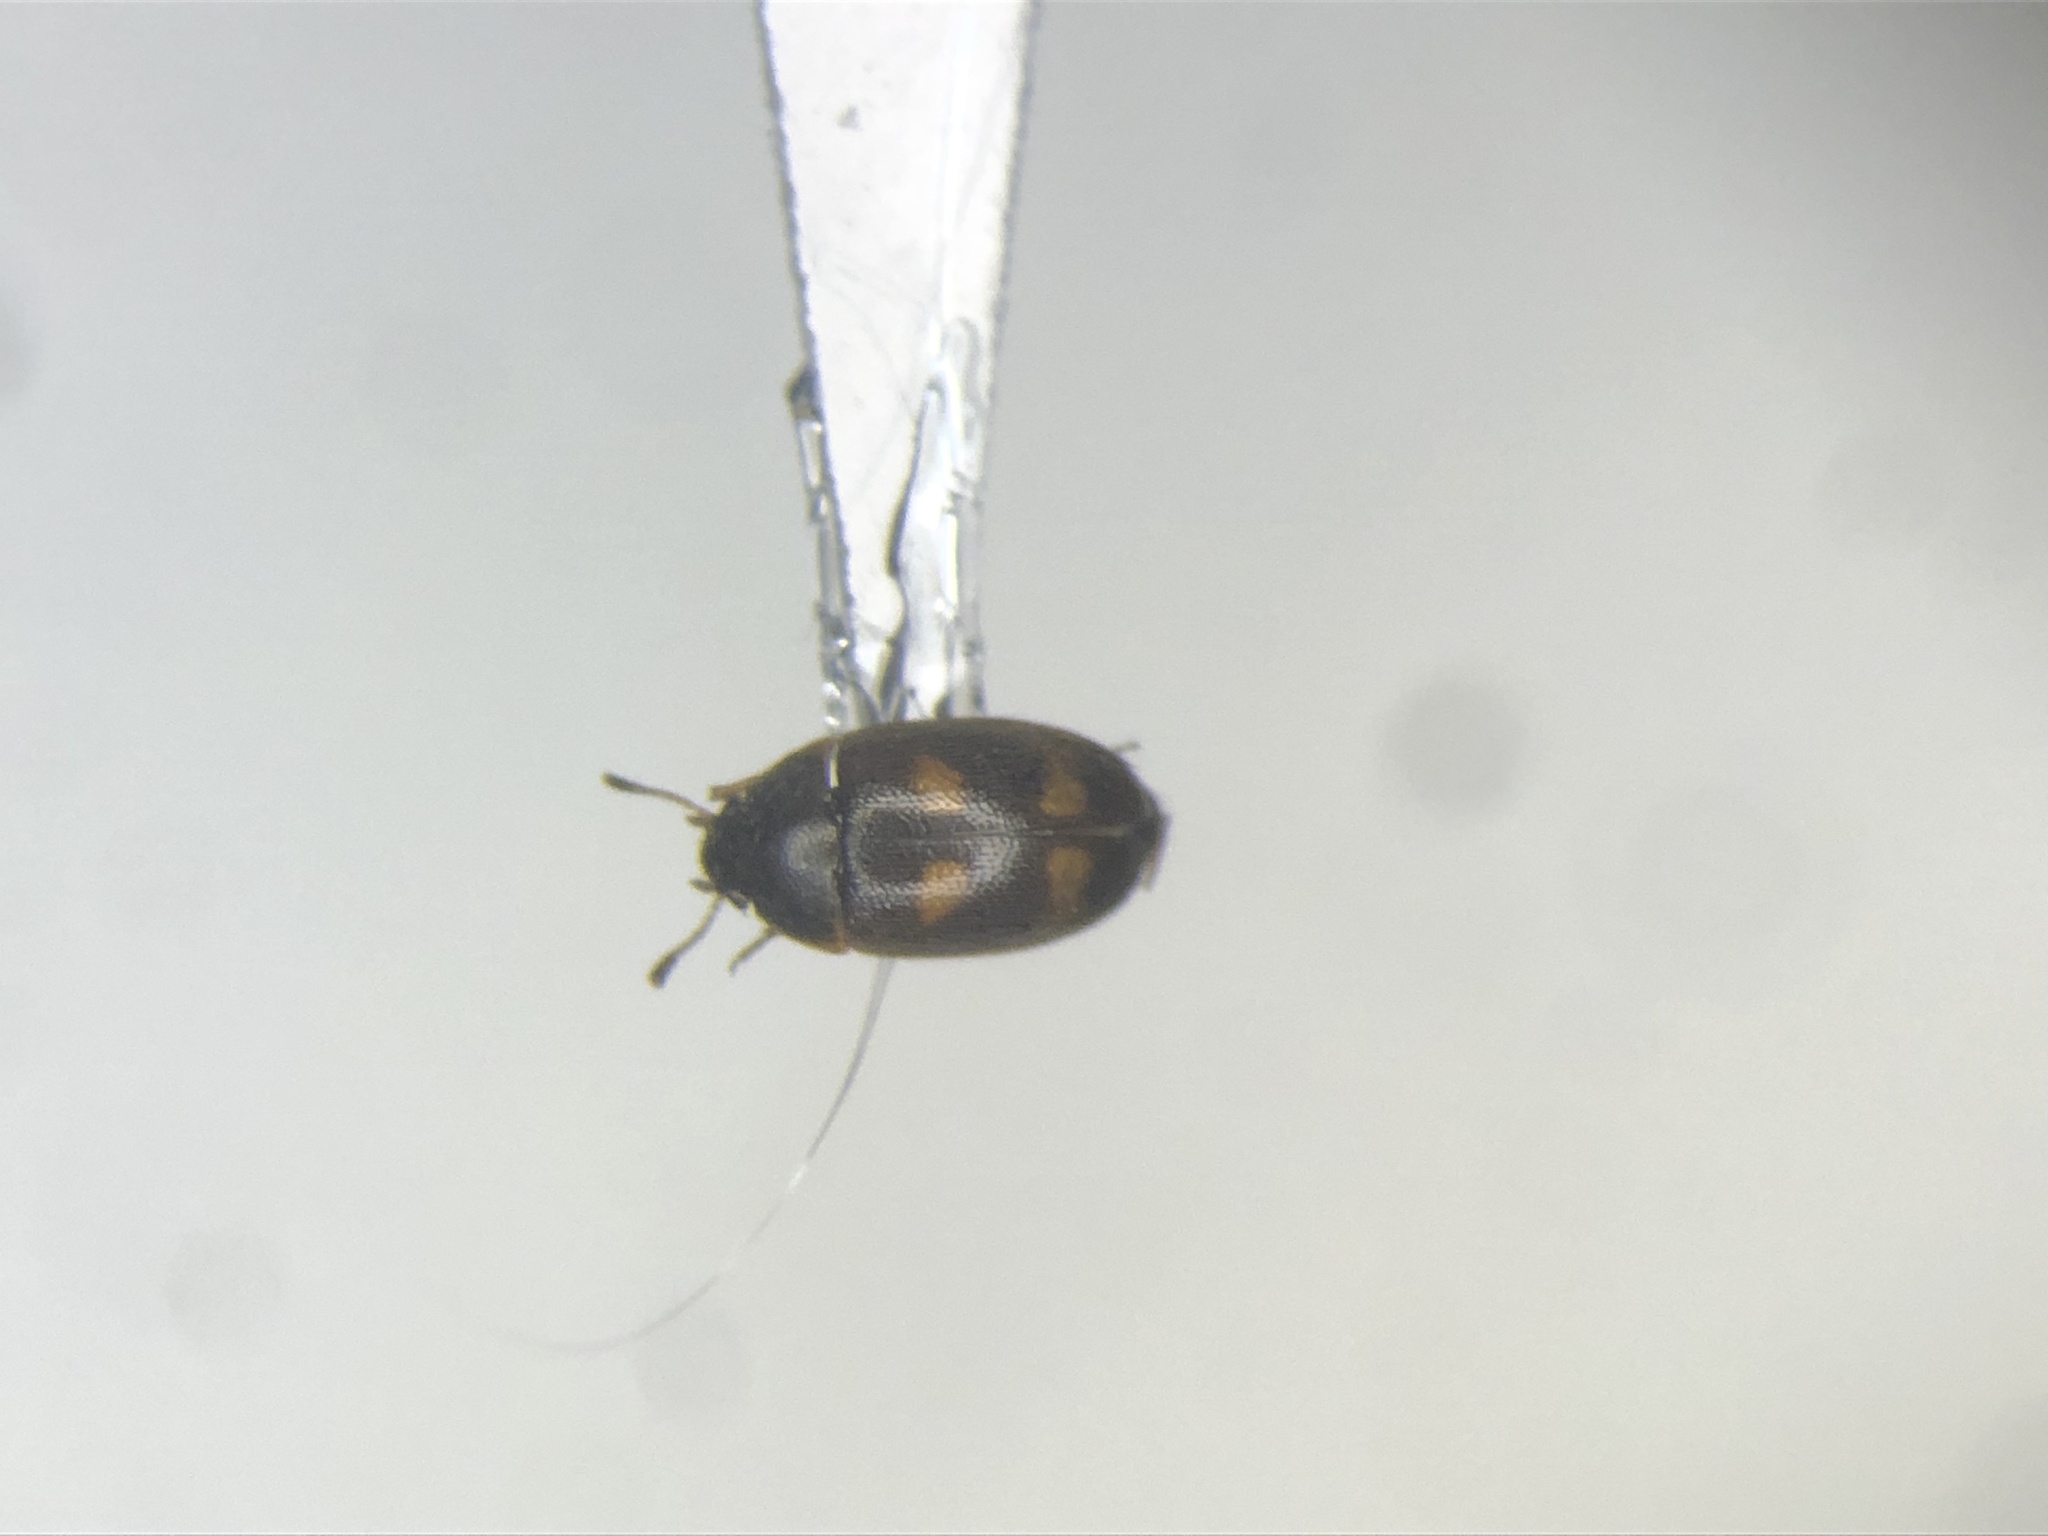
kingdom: Animalia
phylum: Arthropoda
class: Insecta
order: Coleoptera
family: Mycetophagidae
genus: Litargus
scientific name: Litargus tetraspilotus
